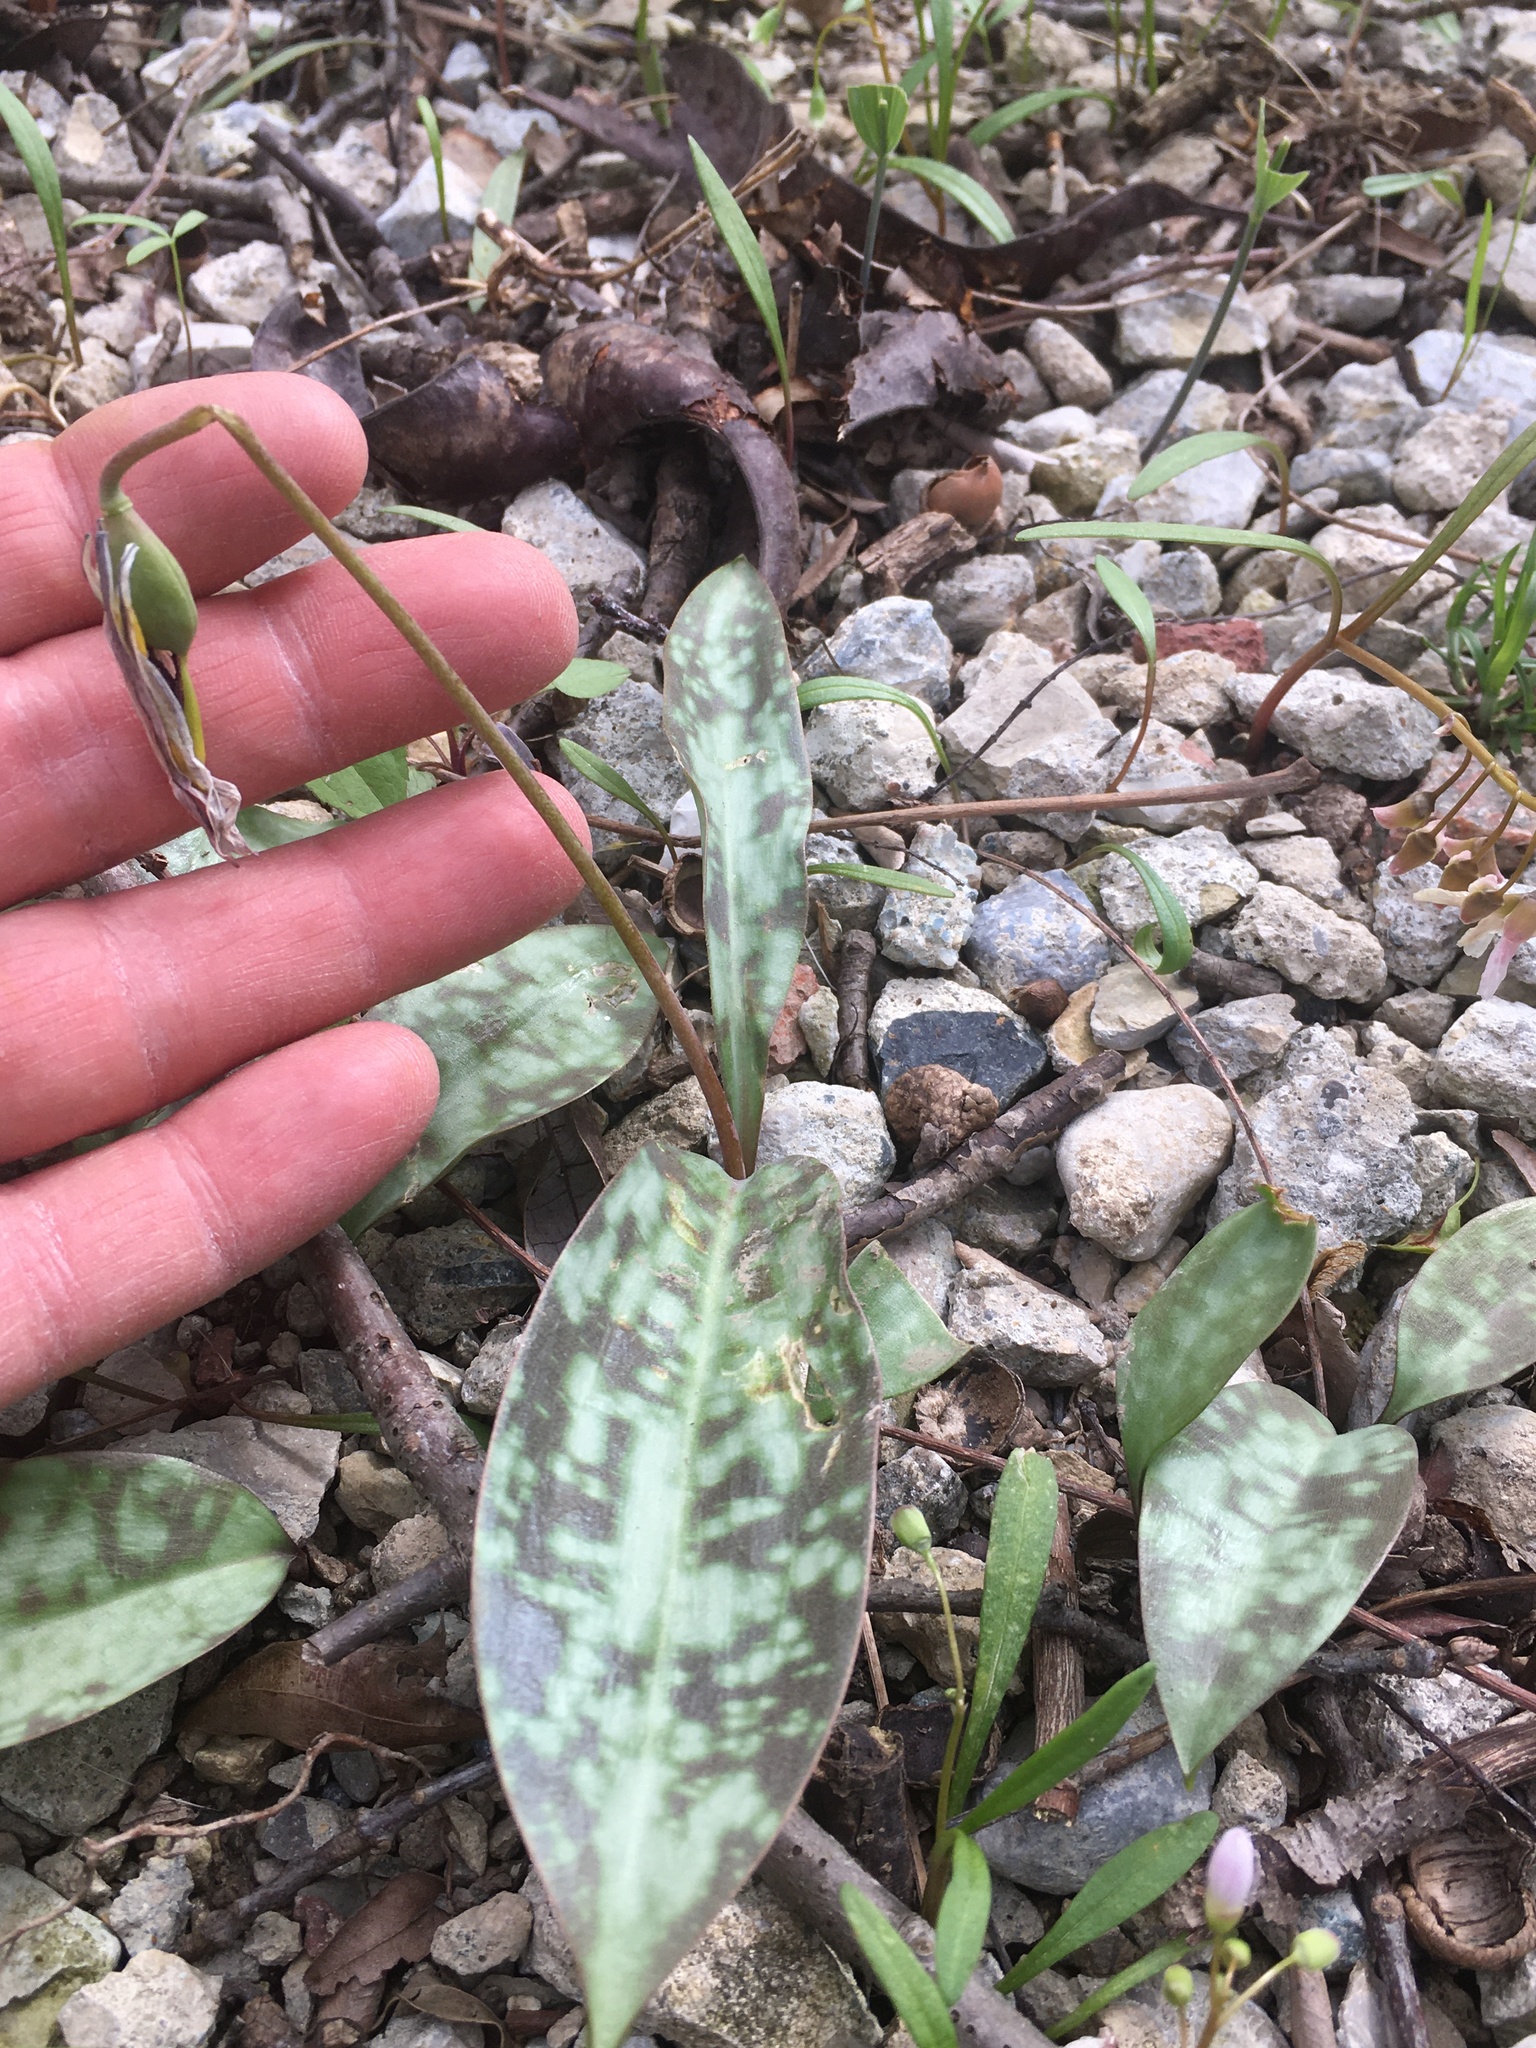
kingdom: Plantae
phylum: Tracheophyta
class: Liliopsida
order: Liliales
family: Liliaceae
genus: Erythronium
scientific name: Erythronium americanum
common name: Yellow adder's-tongue
